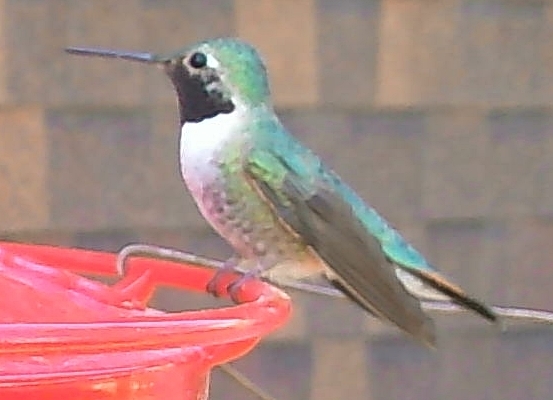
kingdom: Animalia
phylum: Chordata
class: Aves
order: Apodiformes
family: Trochilidae
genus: Selasphorus
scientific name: Selasphorus platycercus
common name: Broad-tailed hummingbird
